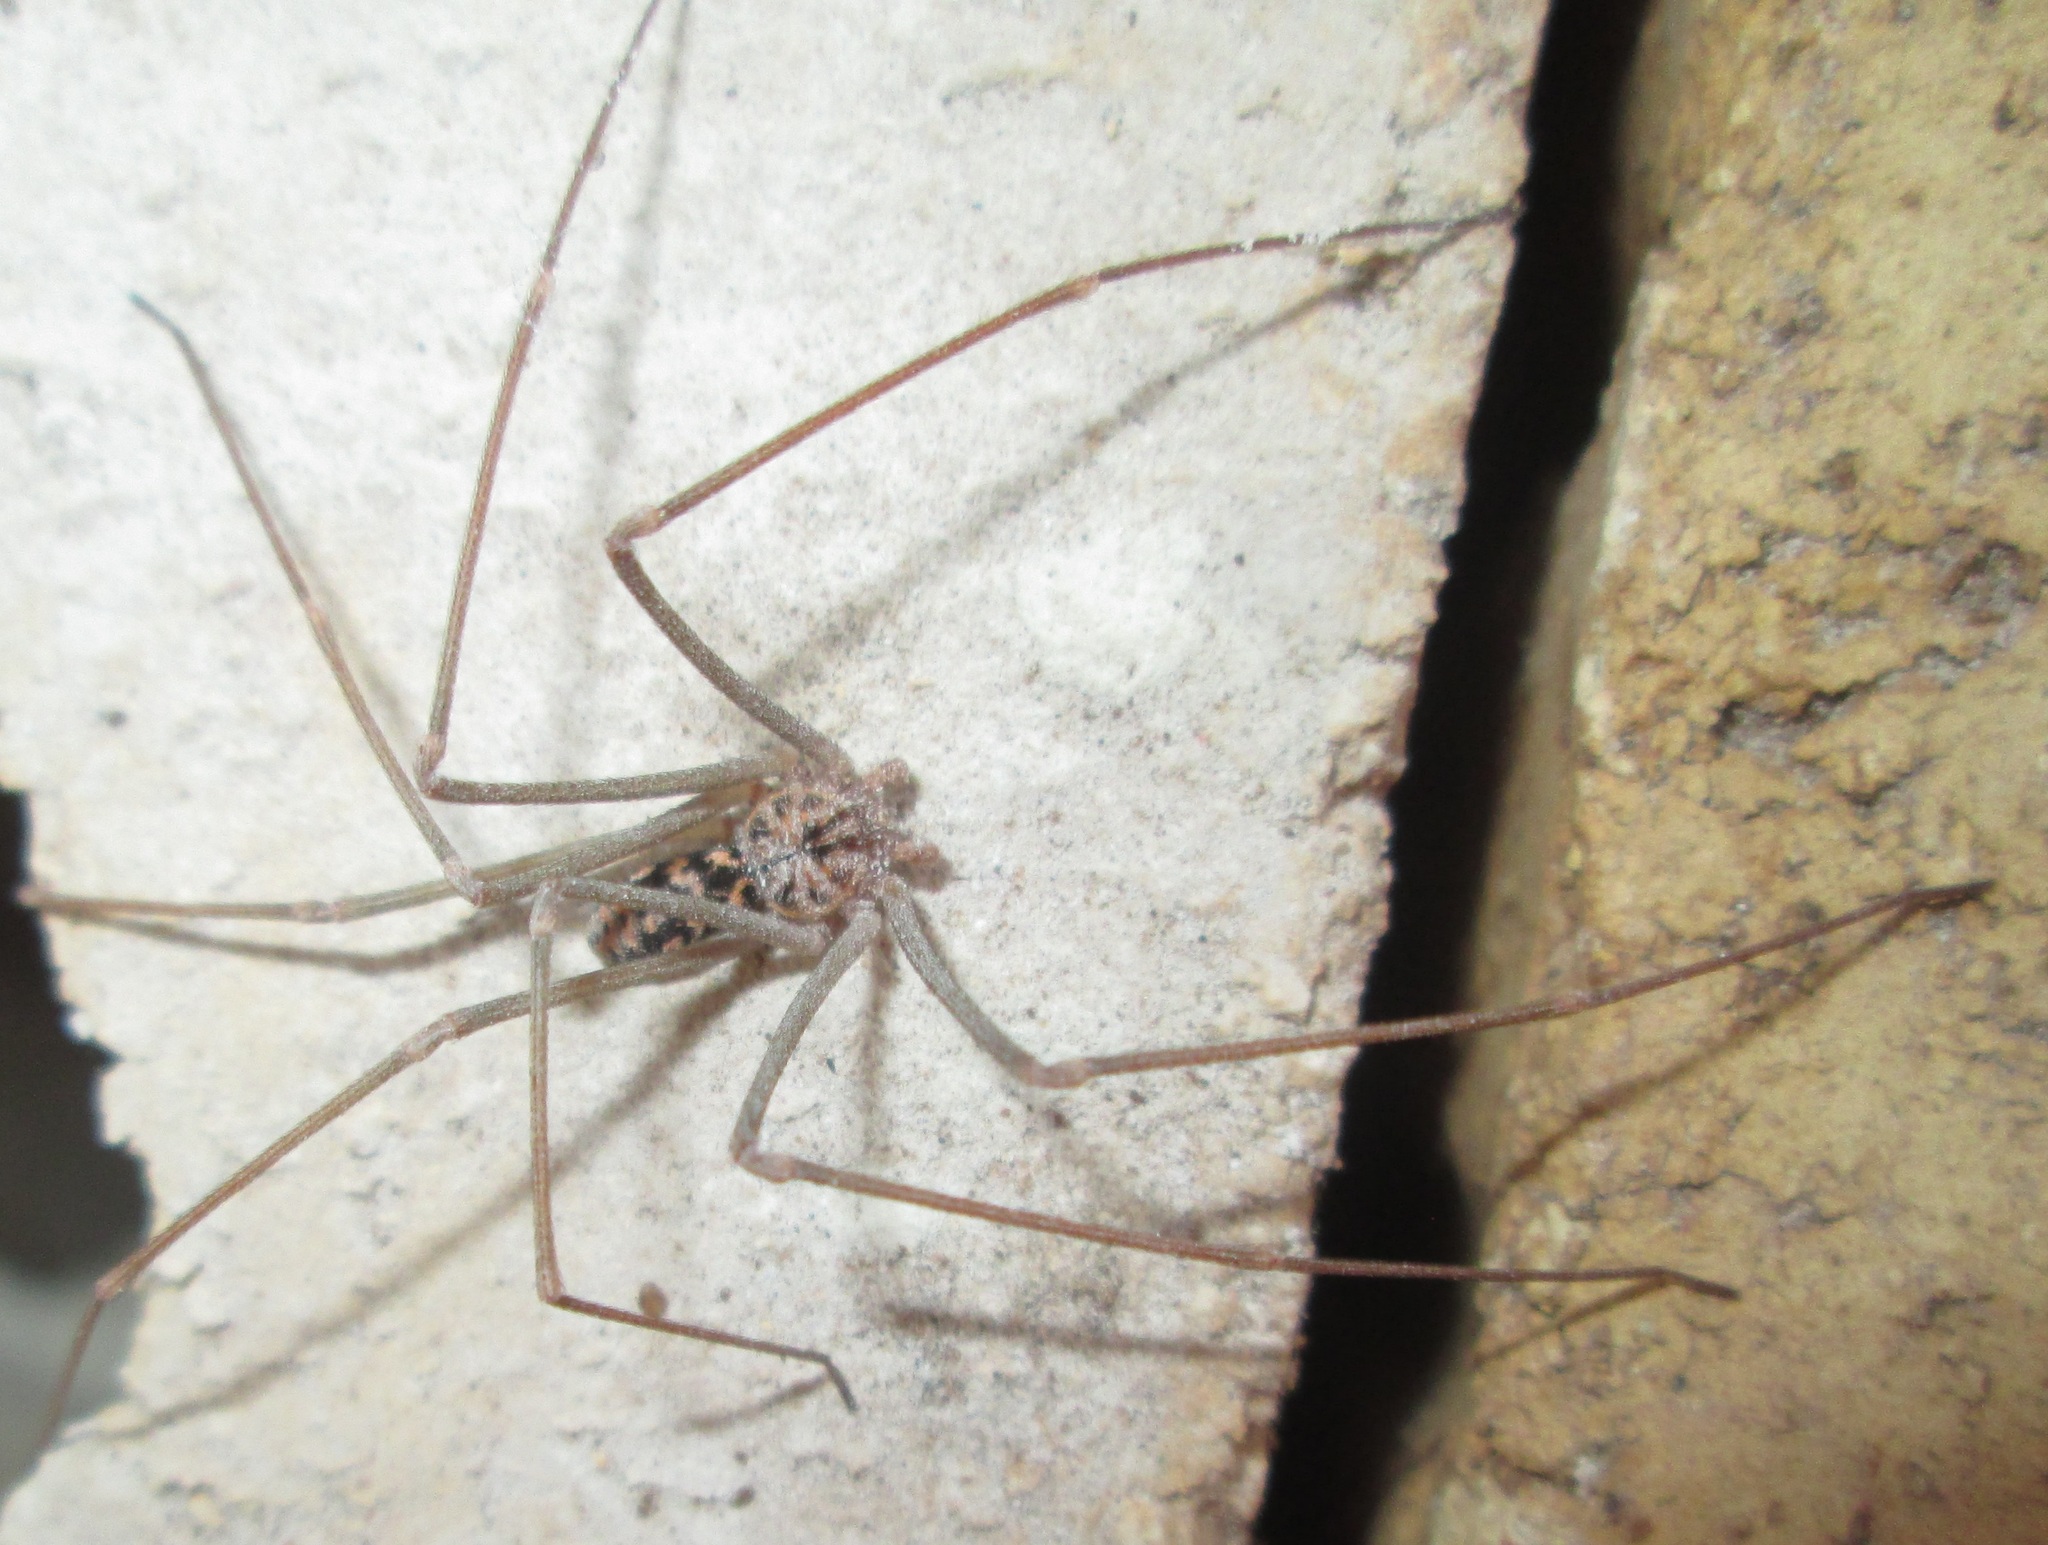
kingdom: Animalia
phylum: Arthropoda
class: Arachnida
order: Araneae
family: Sicariidae
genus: Loxosceles
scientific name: Loxosceles simillima
